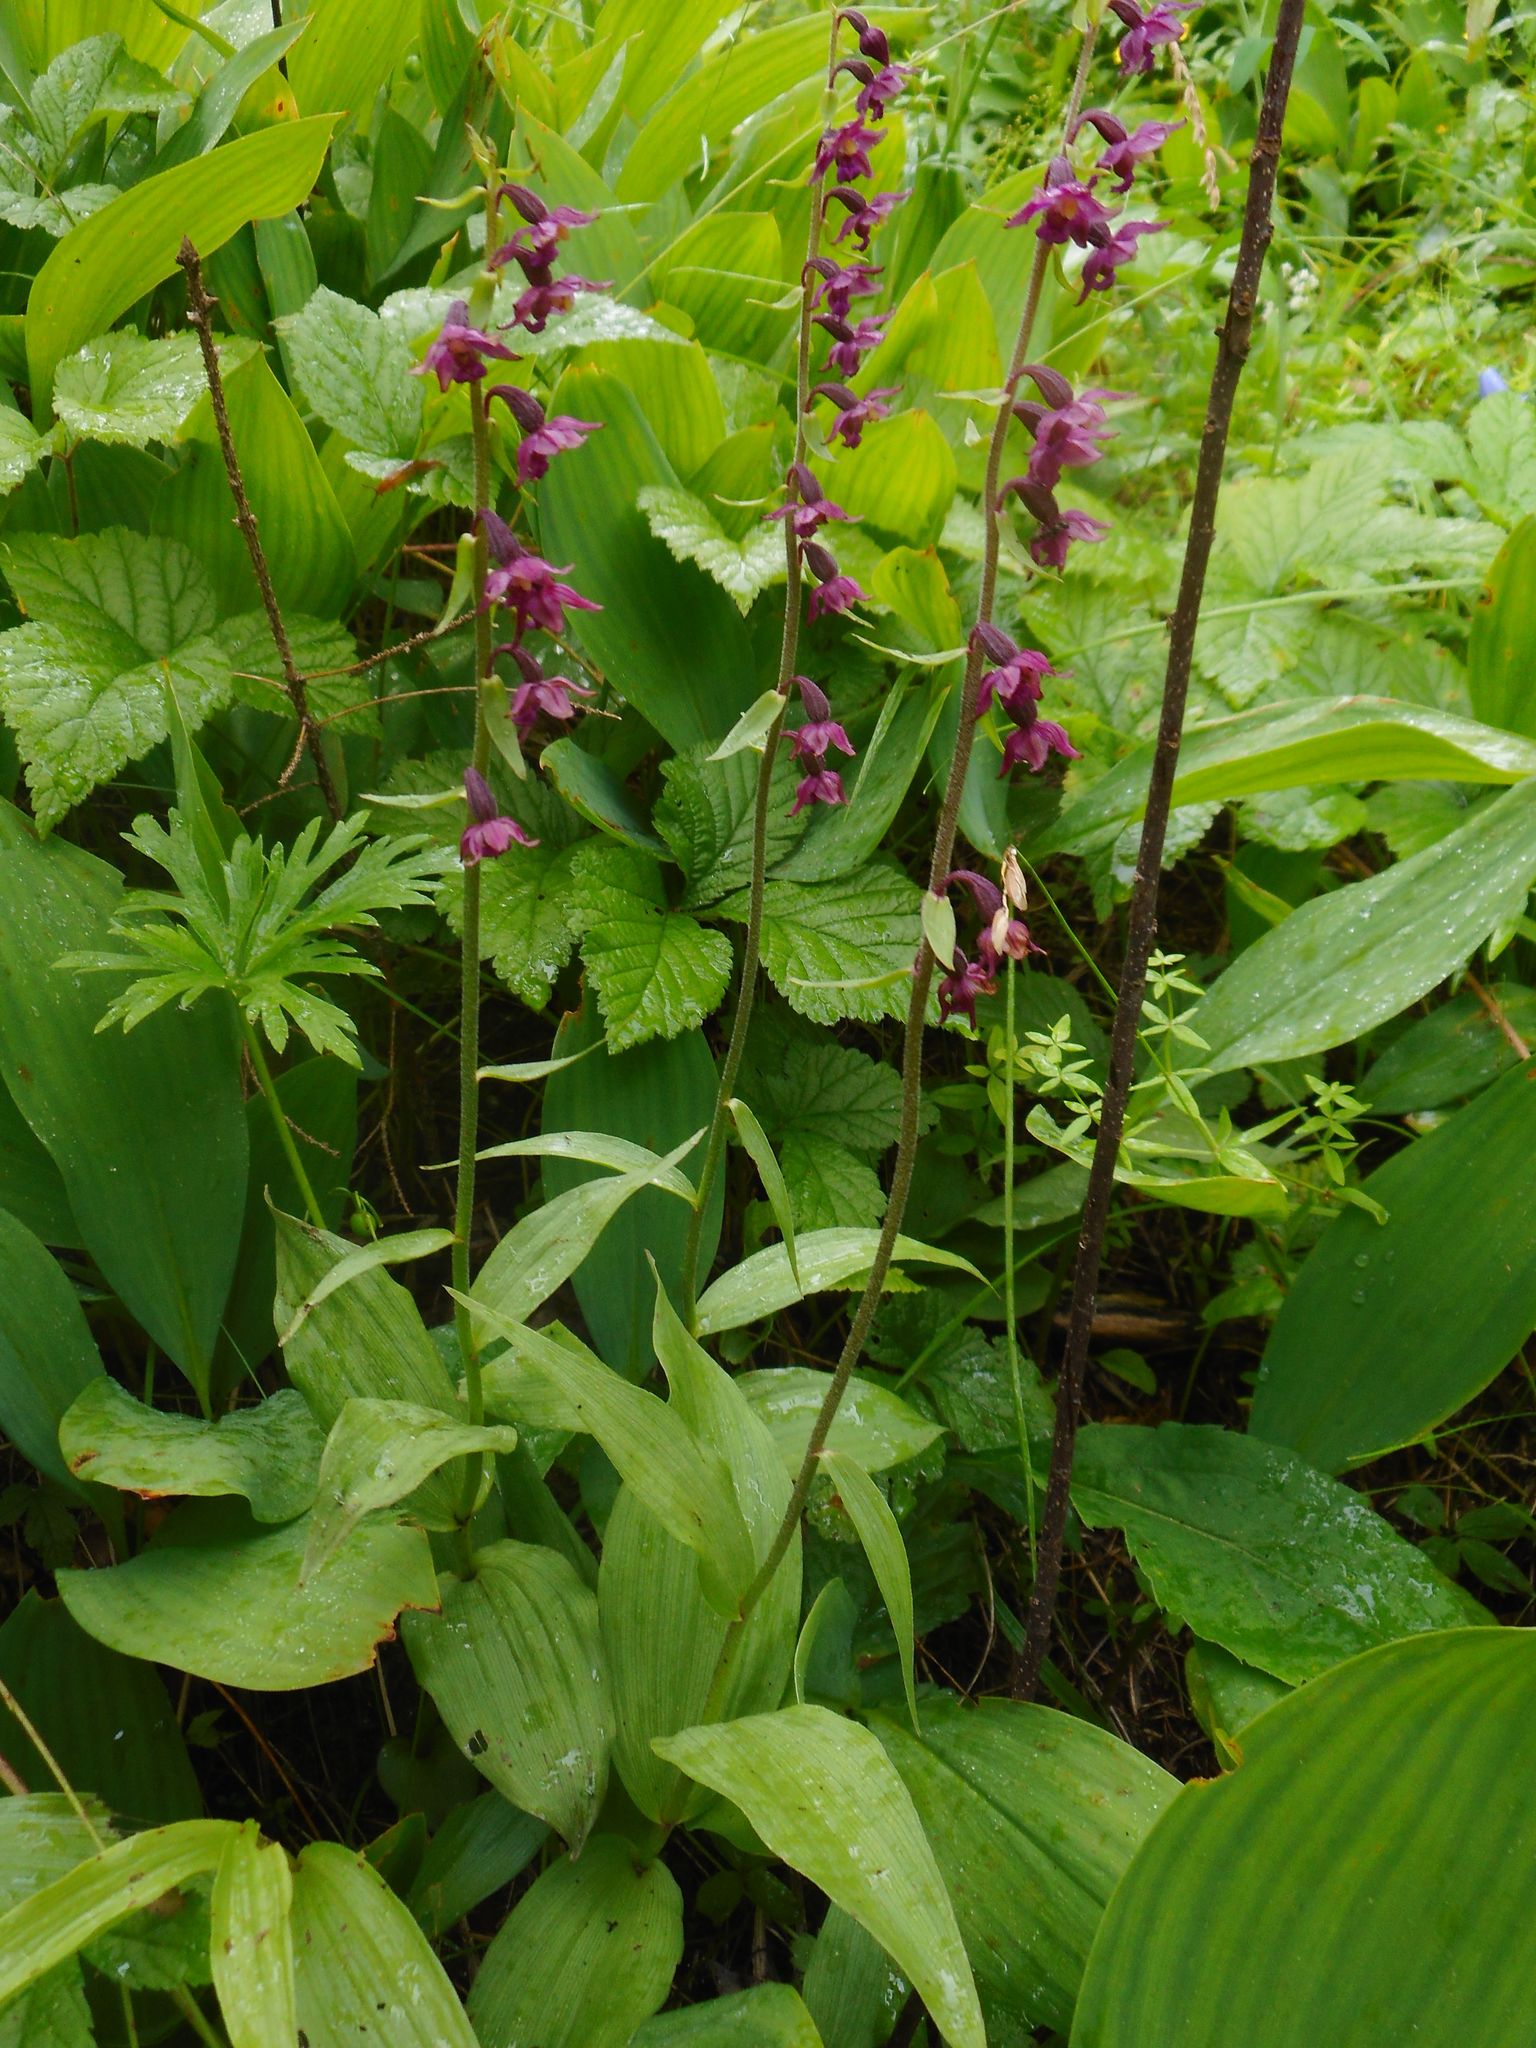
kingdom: Plantae
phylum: Tracheophyta
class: Liliopsida
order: Asparagales
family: Orchidaceae
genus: Epipactis
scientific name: Epipactis atrorubens
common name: Dark-red helleborine
